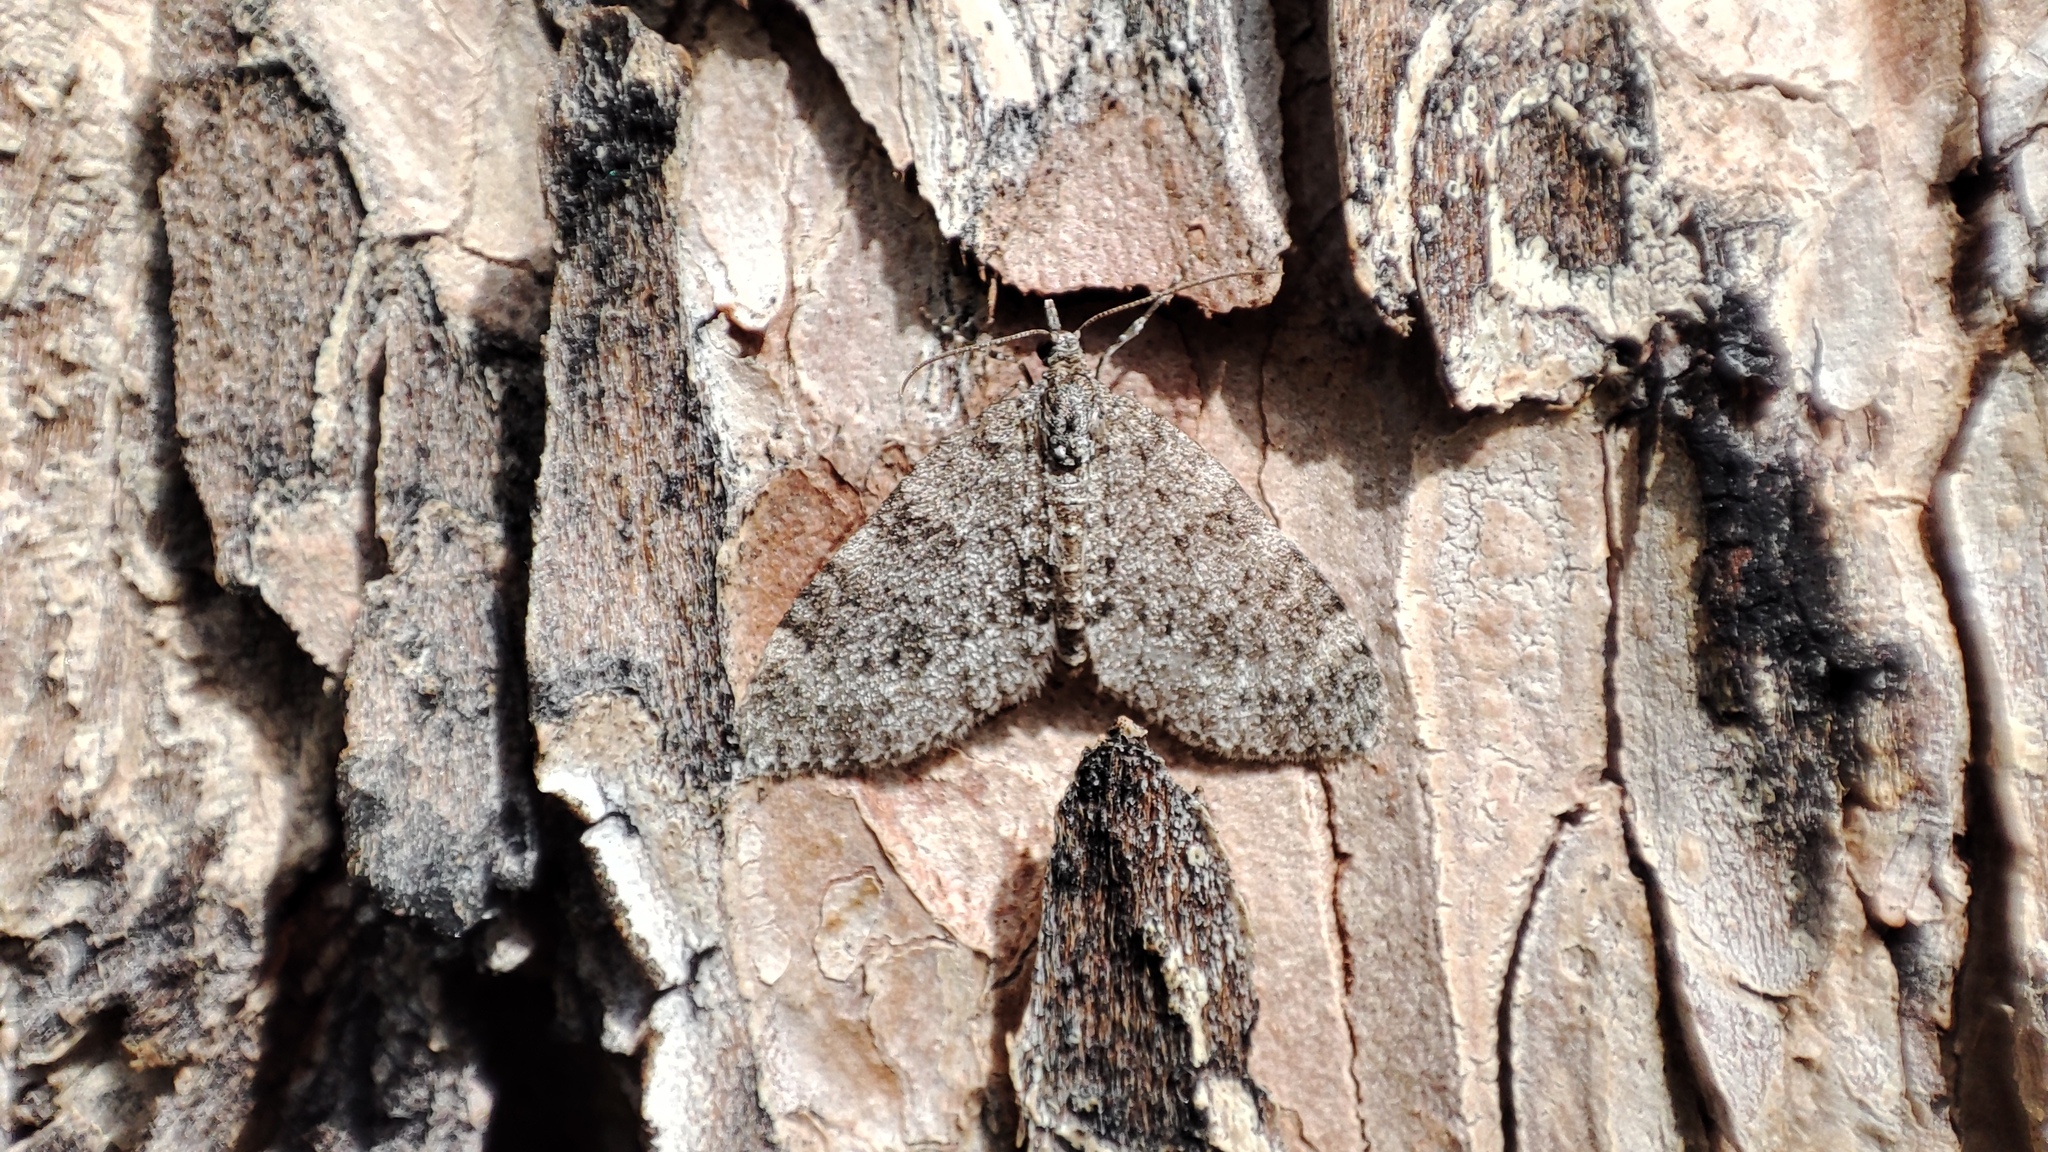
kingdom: Animalia
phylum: Arthropoda
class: Insecta
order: Lepidoptera
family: Geometridae
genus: Acasis
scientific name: Acasis appensata
